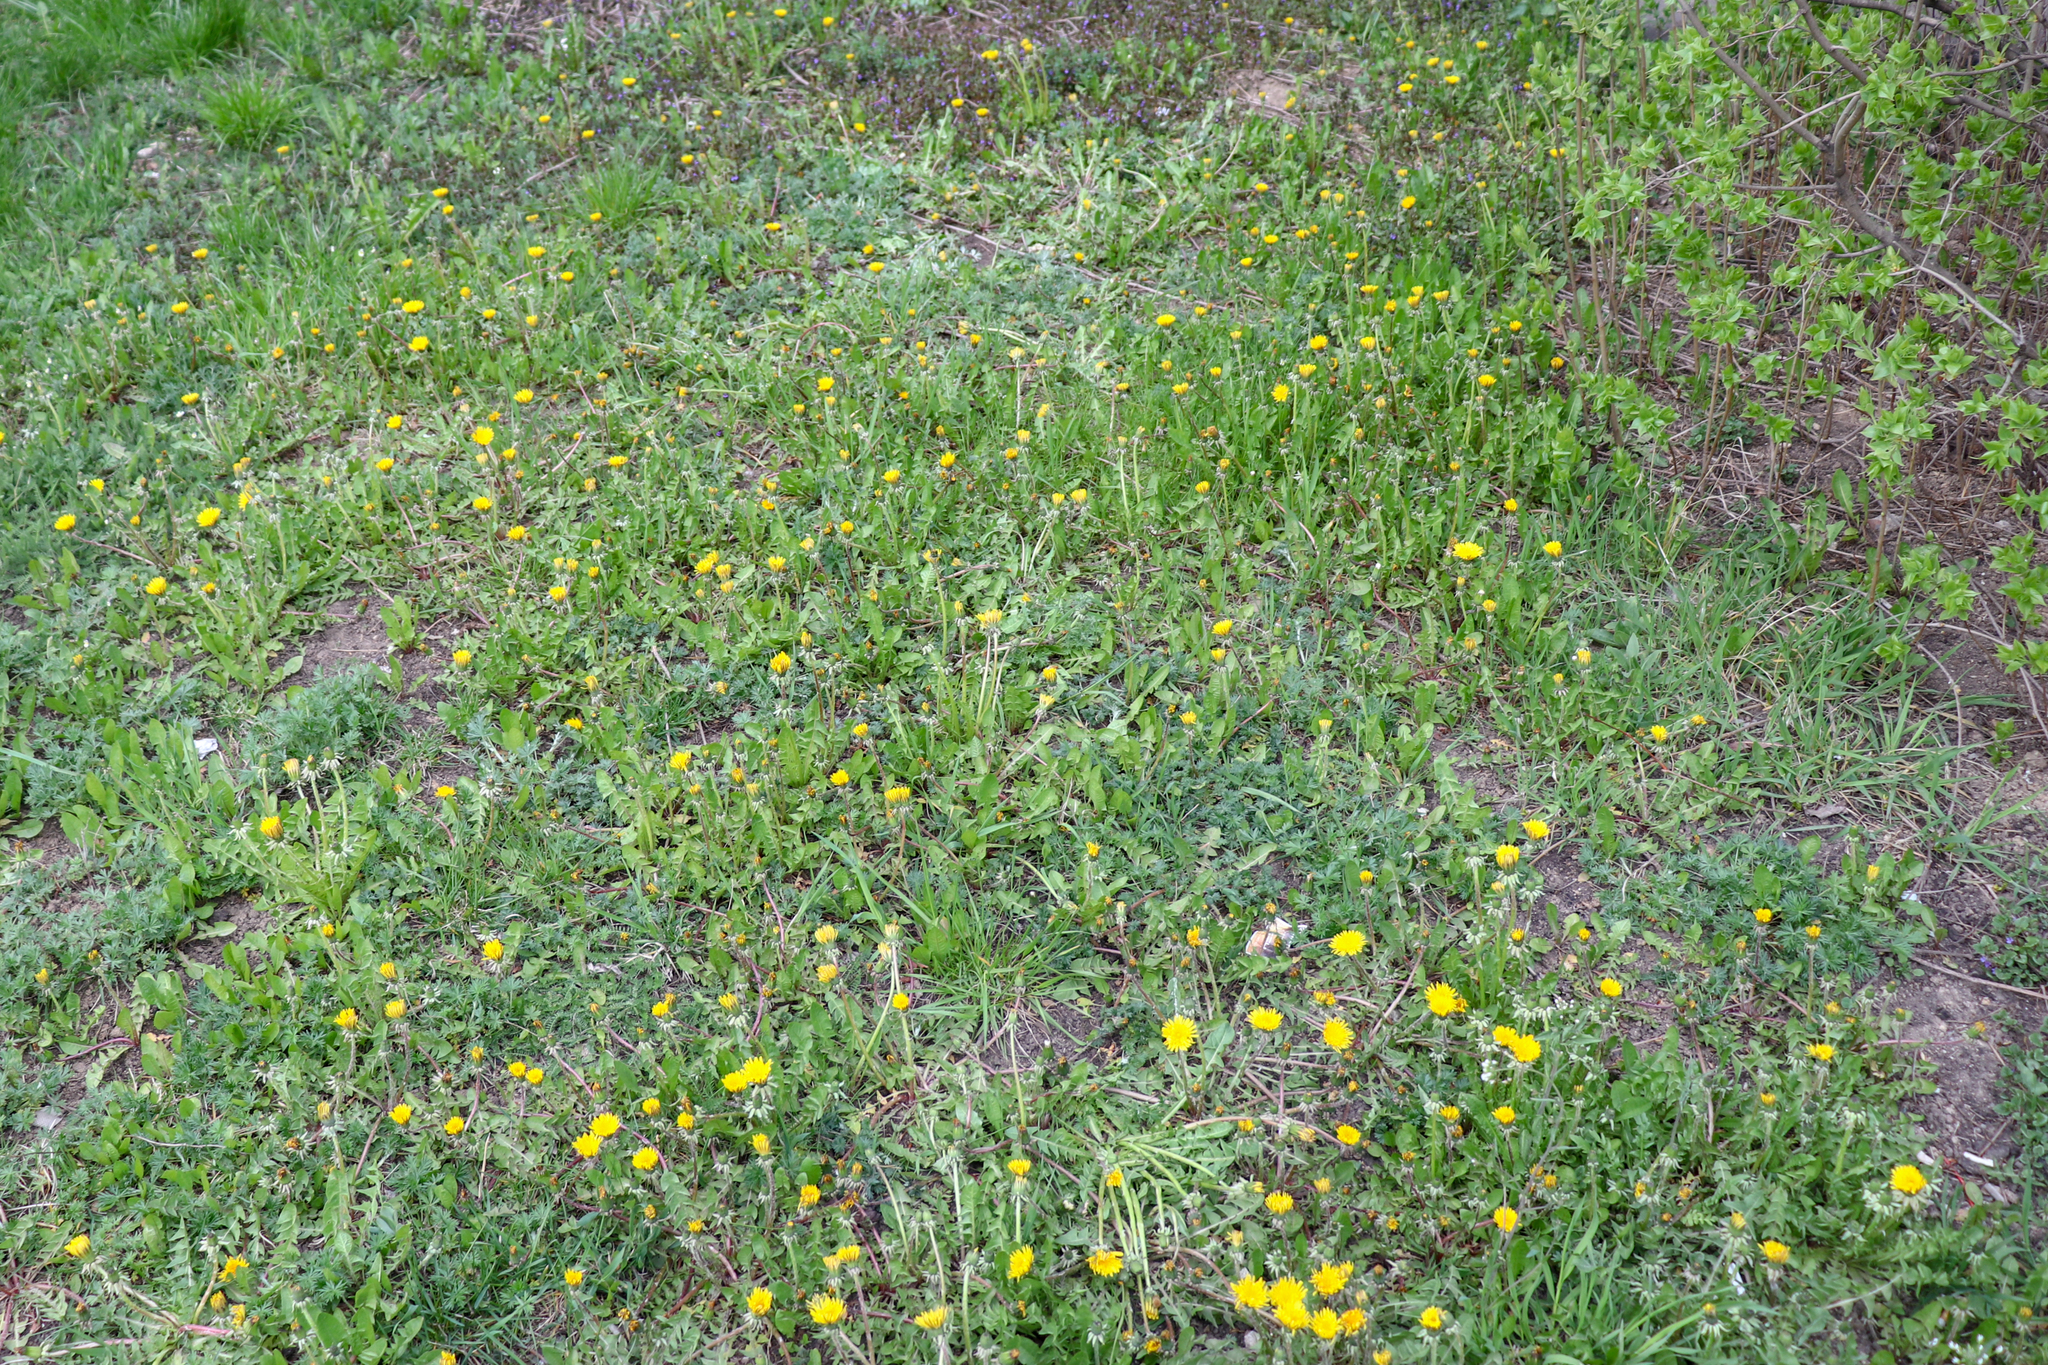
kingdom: Plantae
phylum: Tracheophyta
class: Magnoliopsida
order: Asterales
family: Asteraceae
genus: Taraxacum
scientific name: Taraxacum officinale
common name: Common dandelion
